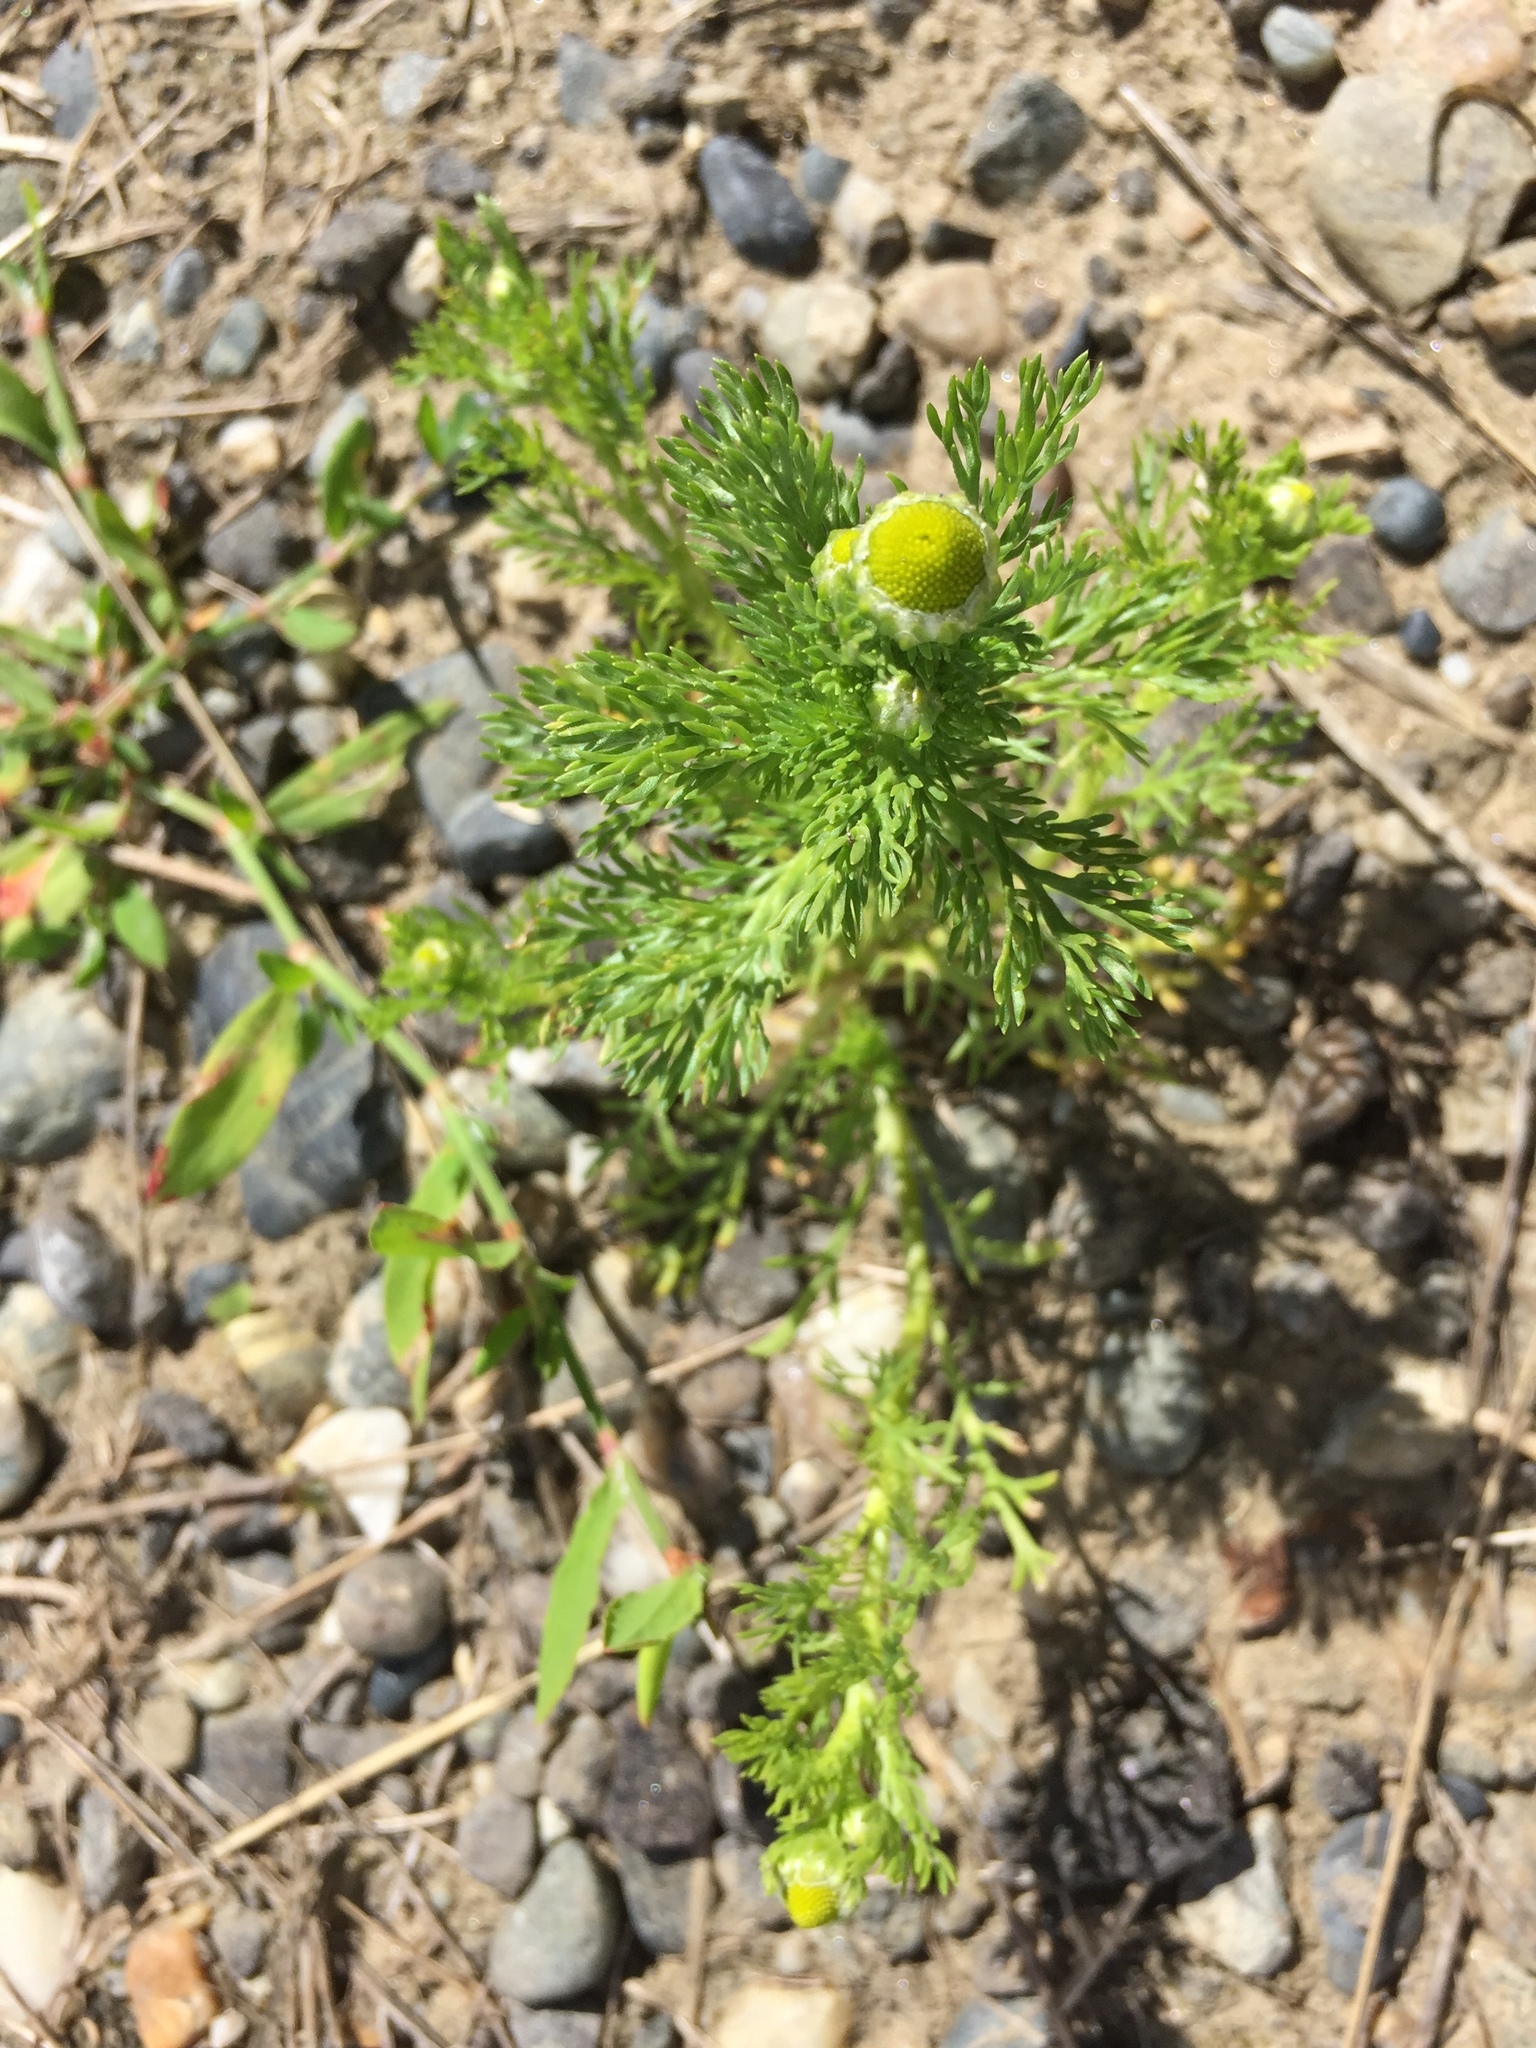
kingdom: Plantae
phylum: Tracheophyta
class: Magnoliopsida
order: Asterales
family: Asteraceae
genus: Matricaria
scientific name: Matricaria discoidea
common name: Disc mayweed
